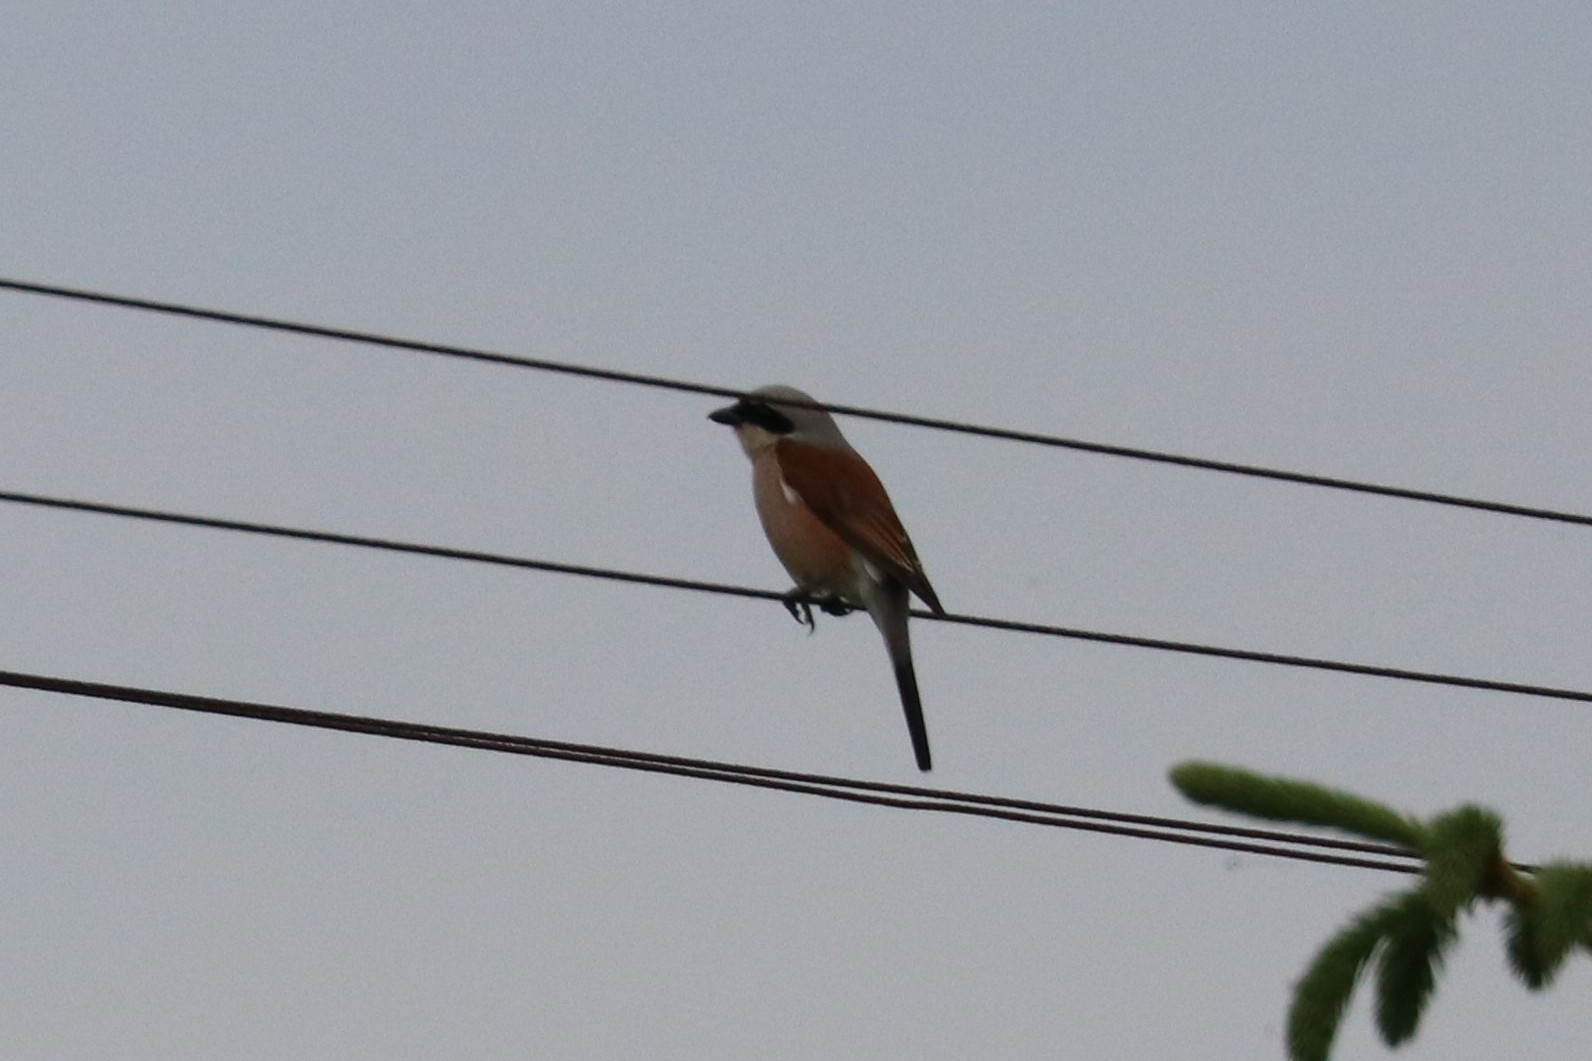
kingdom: Animalia
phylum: Chordata
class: Aves
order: Passeriformes
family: Laniidae
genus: Lanius
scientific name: Lanius collurio
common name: Red-backed shrike
